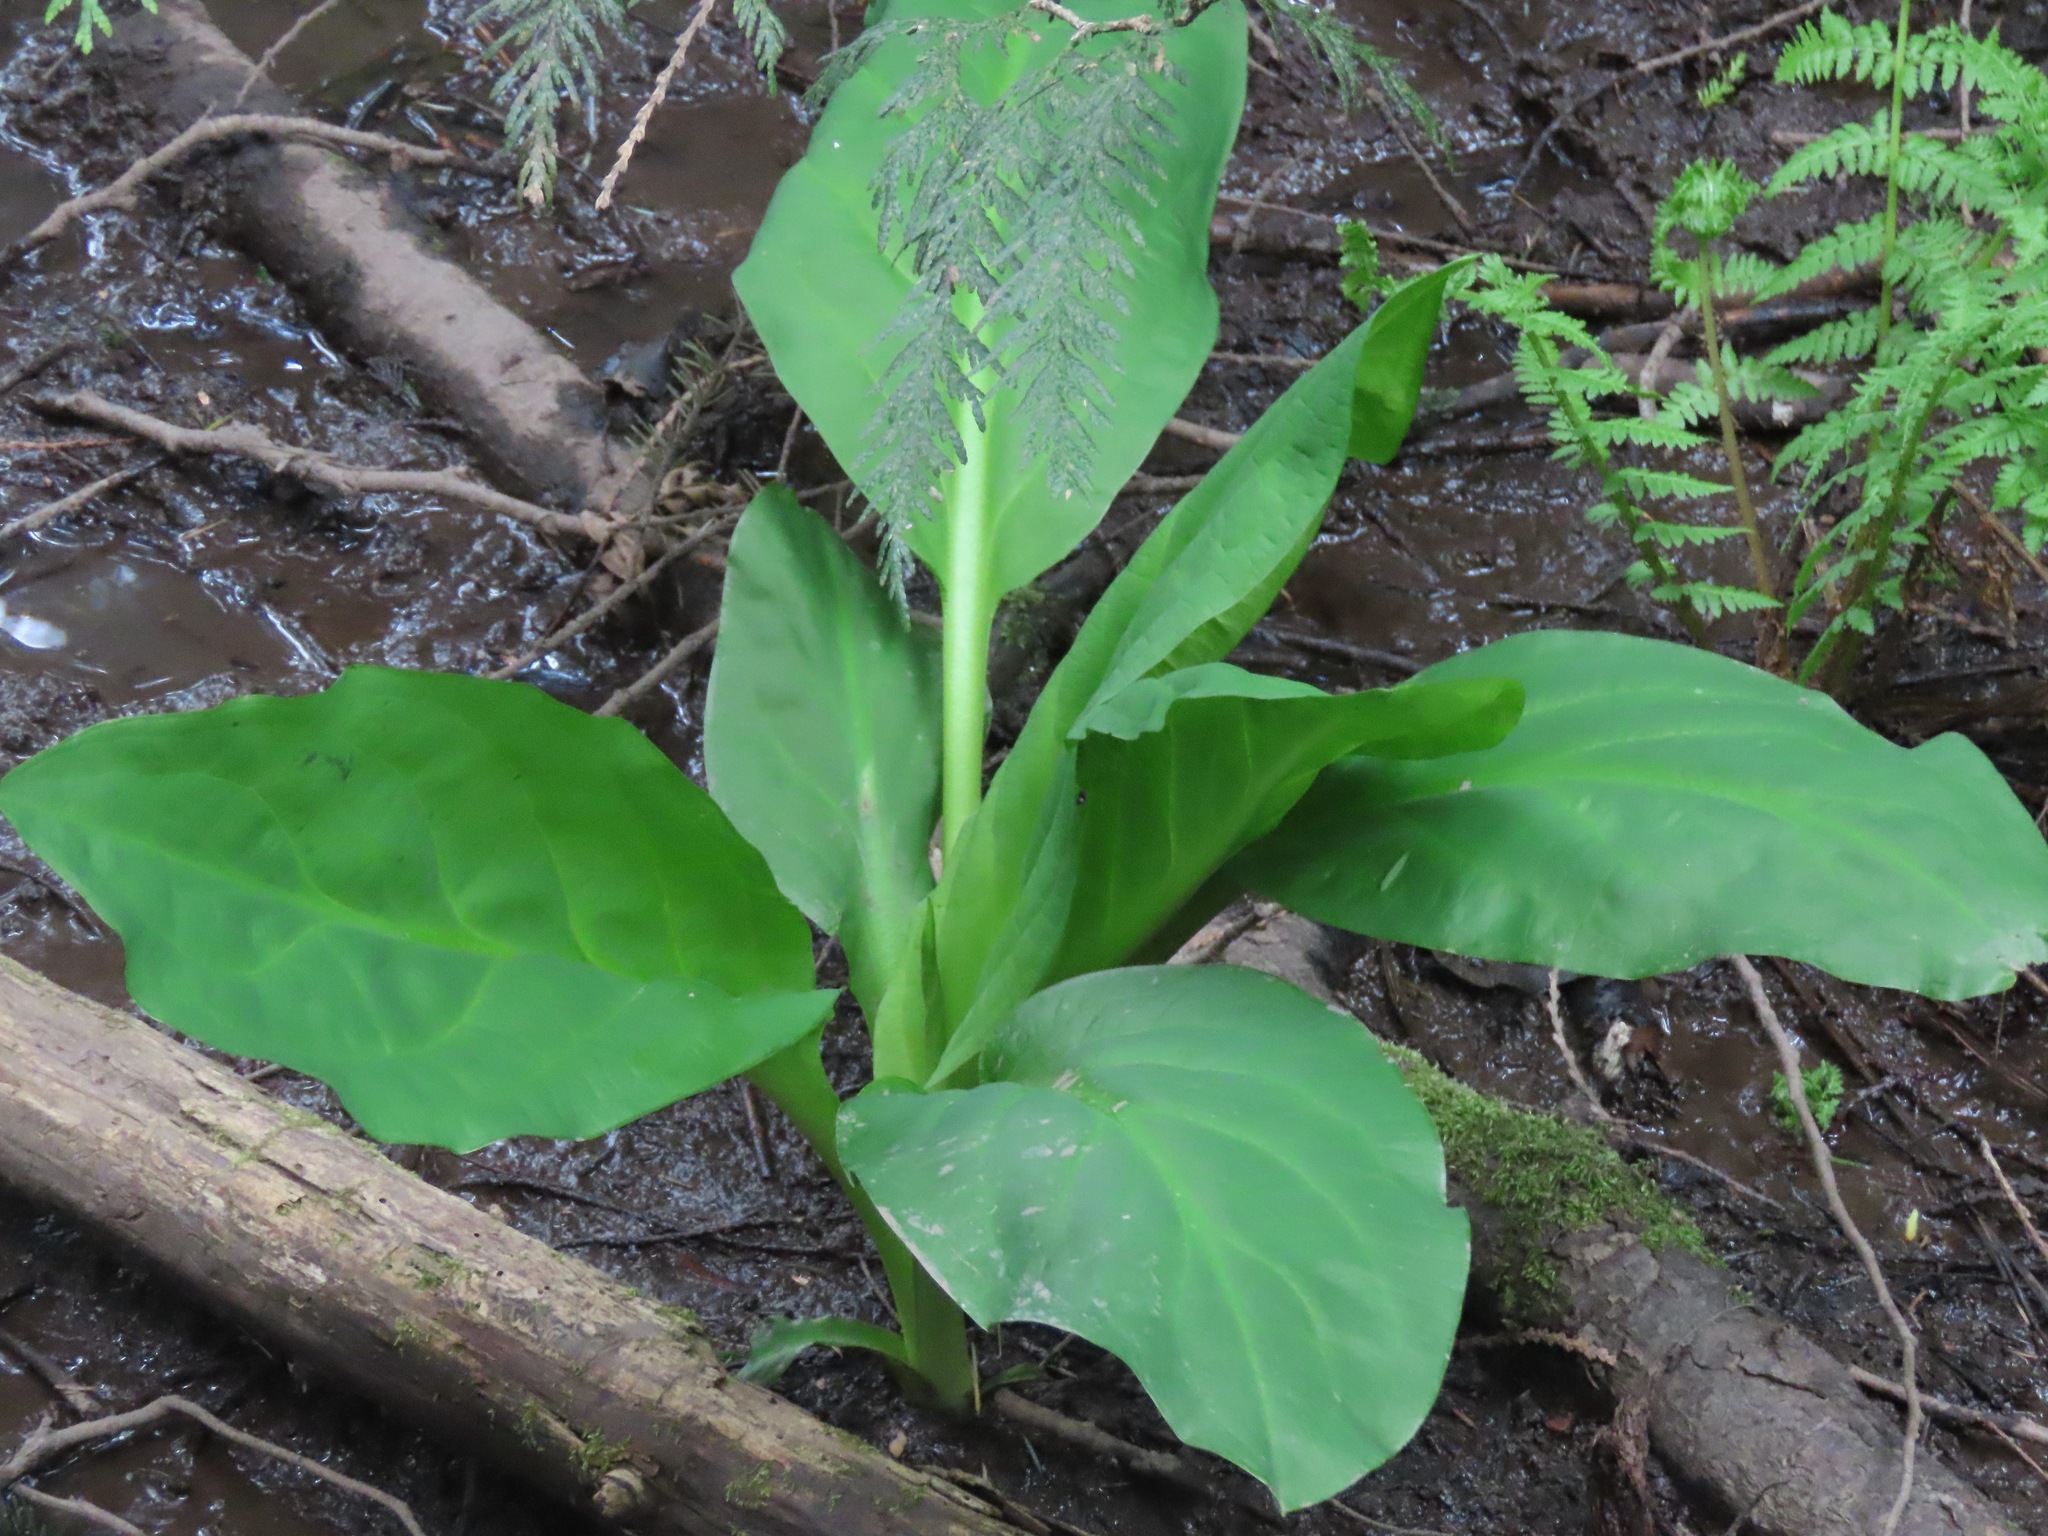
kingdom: Plantae
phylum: Tracheophyta
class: Liliopsida
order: Alismatales
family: Araceae
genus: Lysichiton
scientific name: Lysichiton americanus
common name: American skunk cabbage
